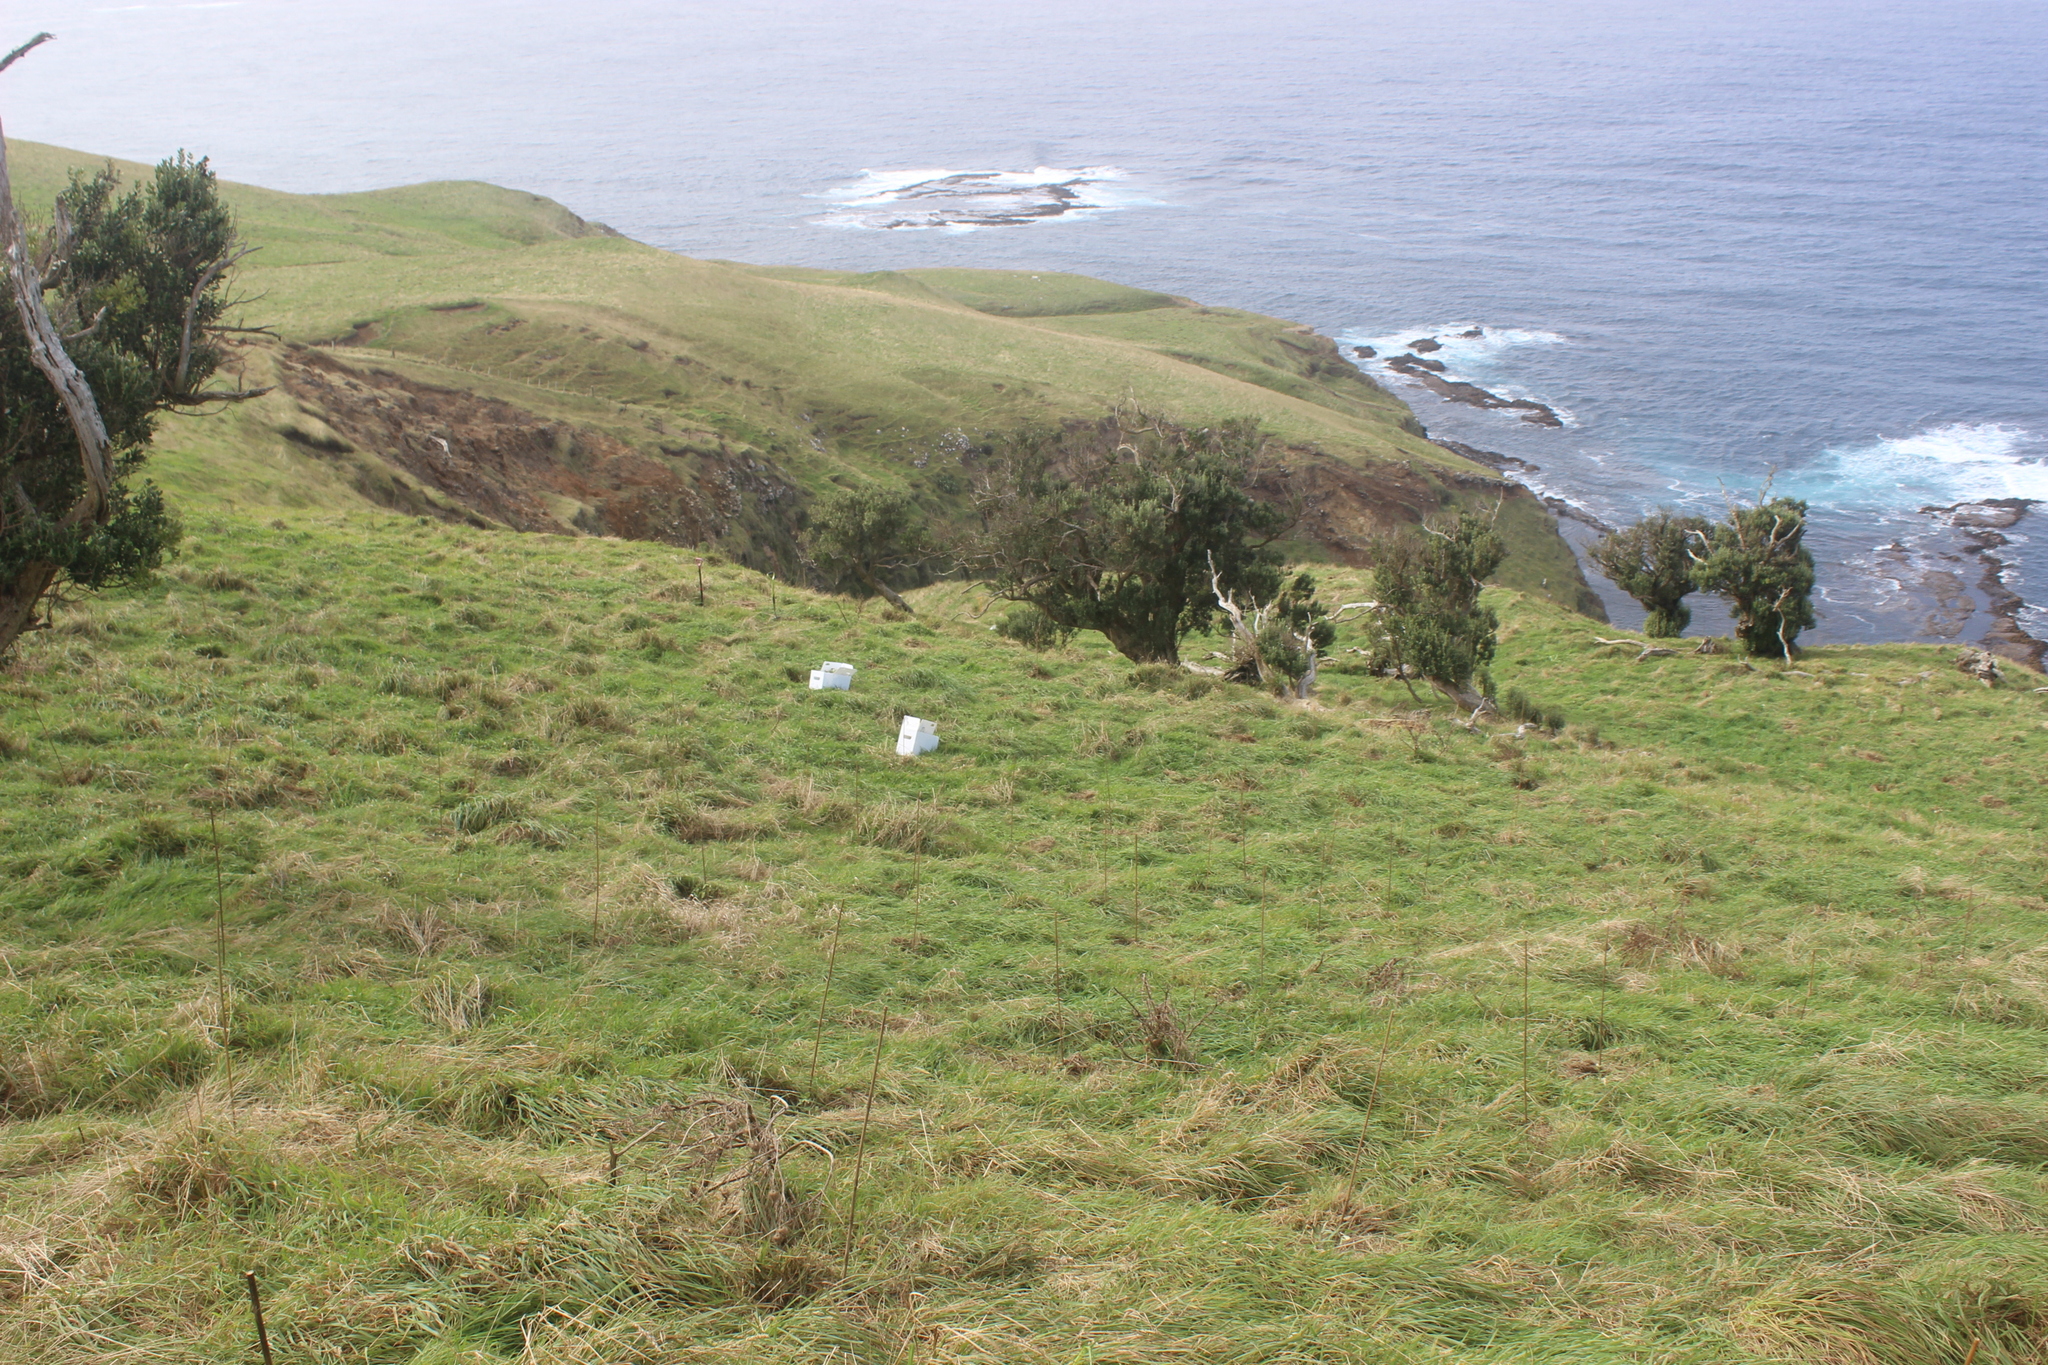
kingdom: Plantae
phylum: Tracheophyta
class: Magnoliopsida
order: Asterales
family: Asteraceae
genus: Olearia
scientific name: Olearia traversiorum
